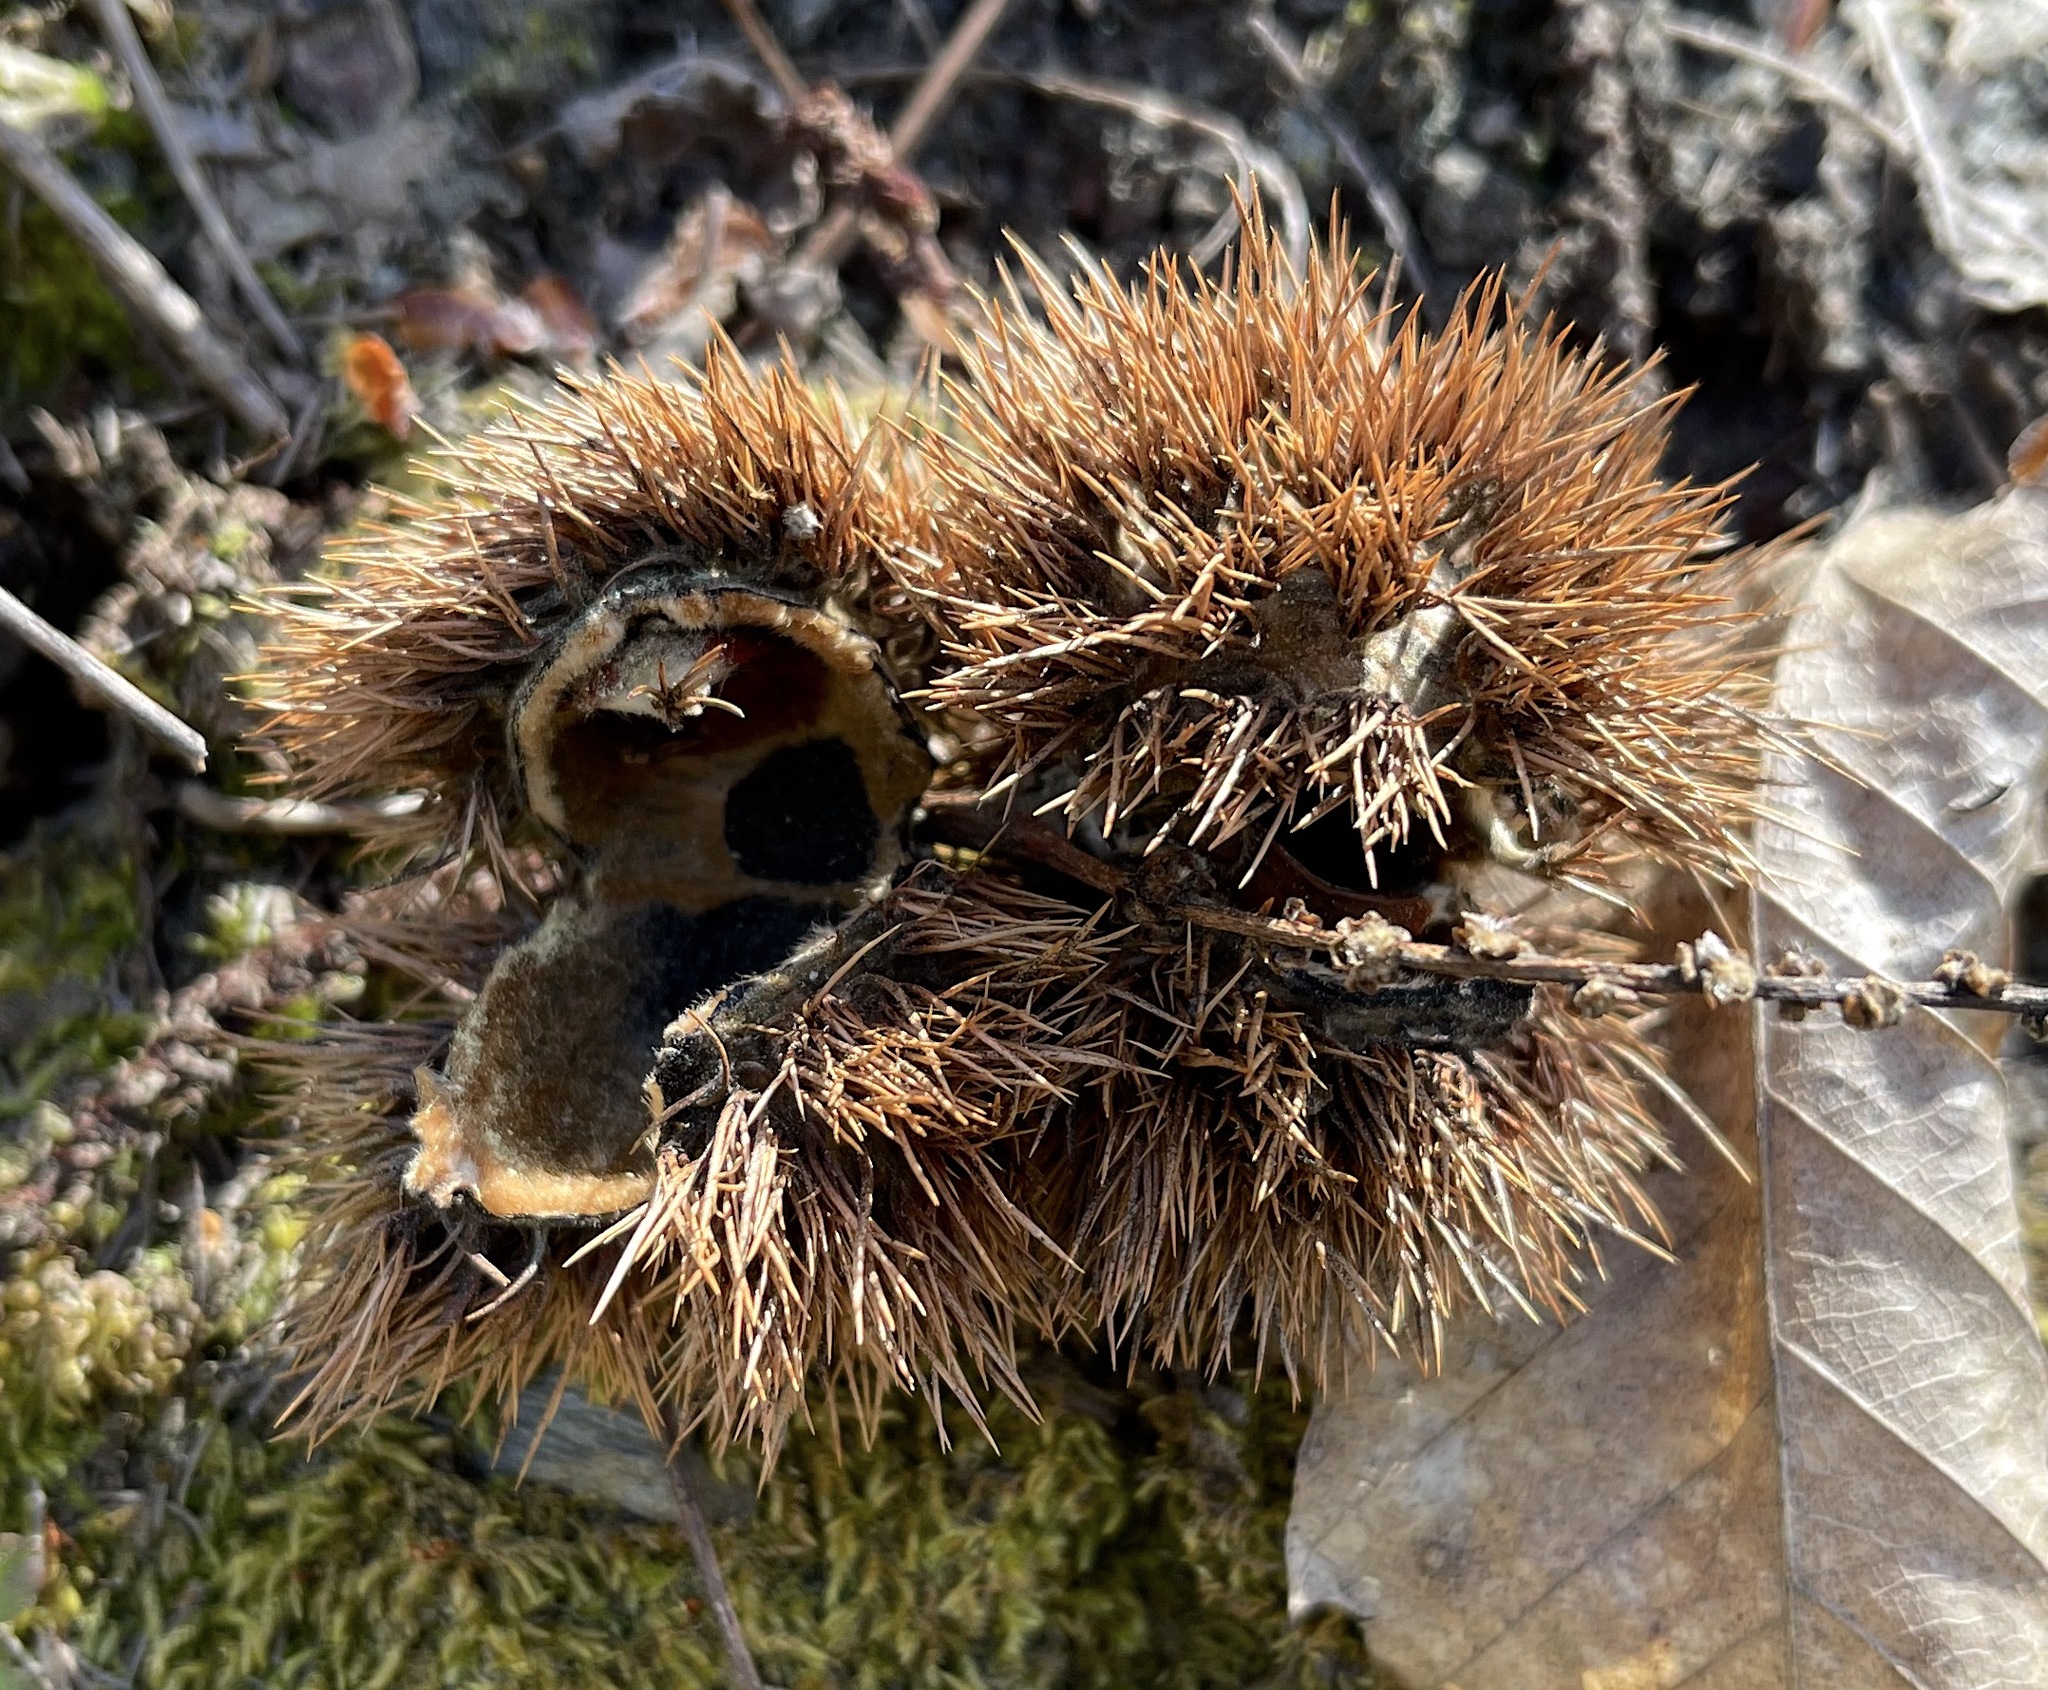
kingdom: Plantae
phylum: Tracheophyta
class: Magnoliopsida
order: Fagales
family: Fagaceae
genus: Castanea
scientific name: Castanea sativa
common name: Sweet chestnut
